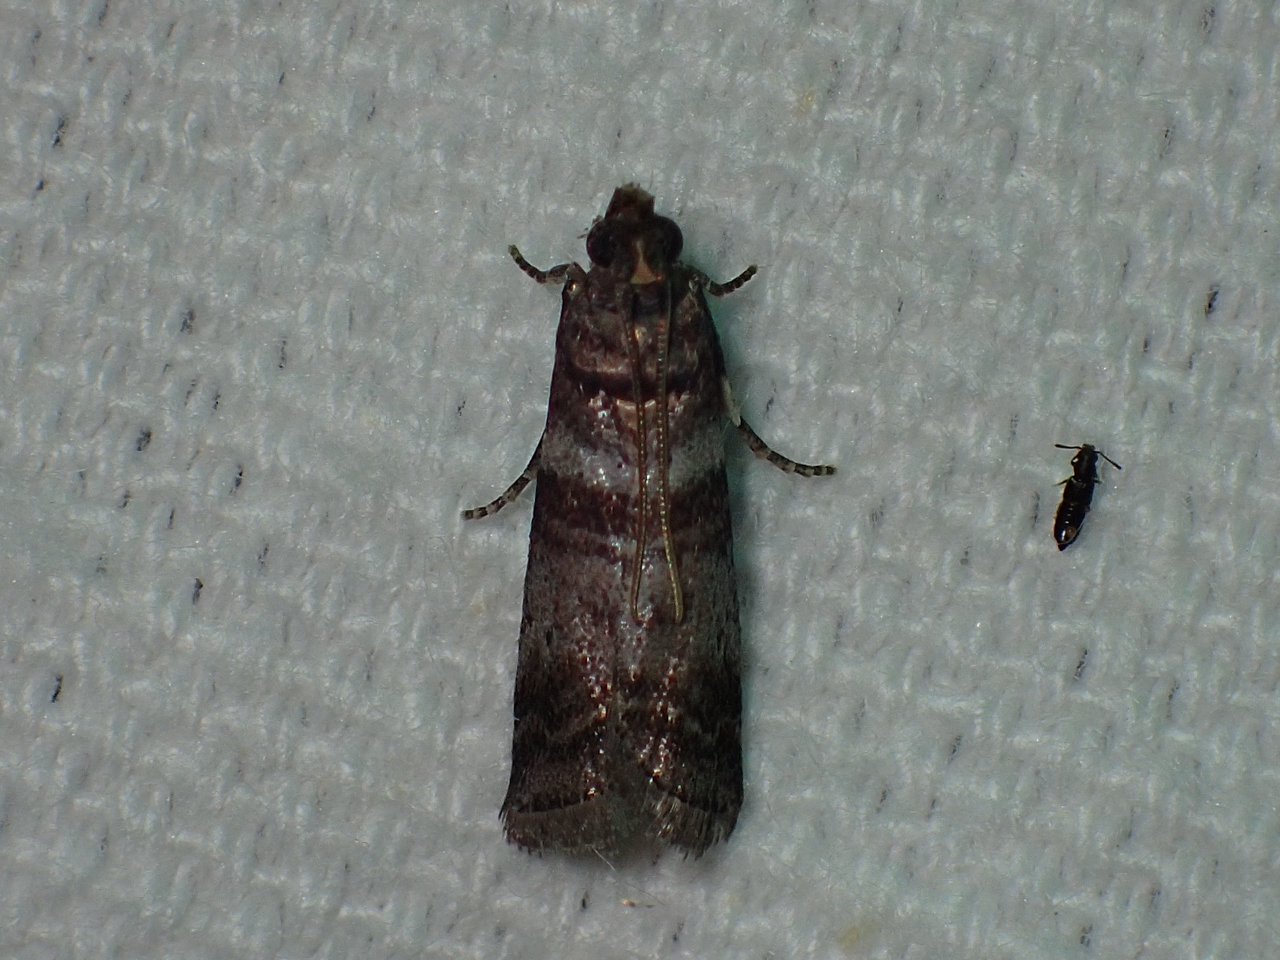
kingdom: Animalia
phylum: Arthropoda
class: Insecta
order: Lepidoptera
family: Pyralidae
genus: Sciota
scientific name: Sciota uvinella
